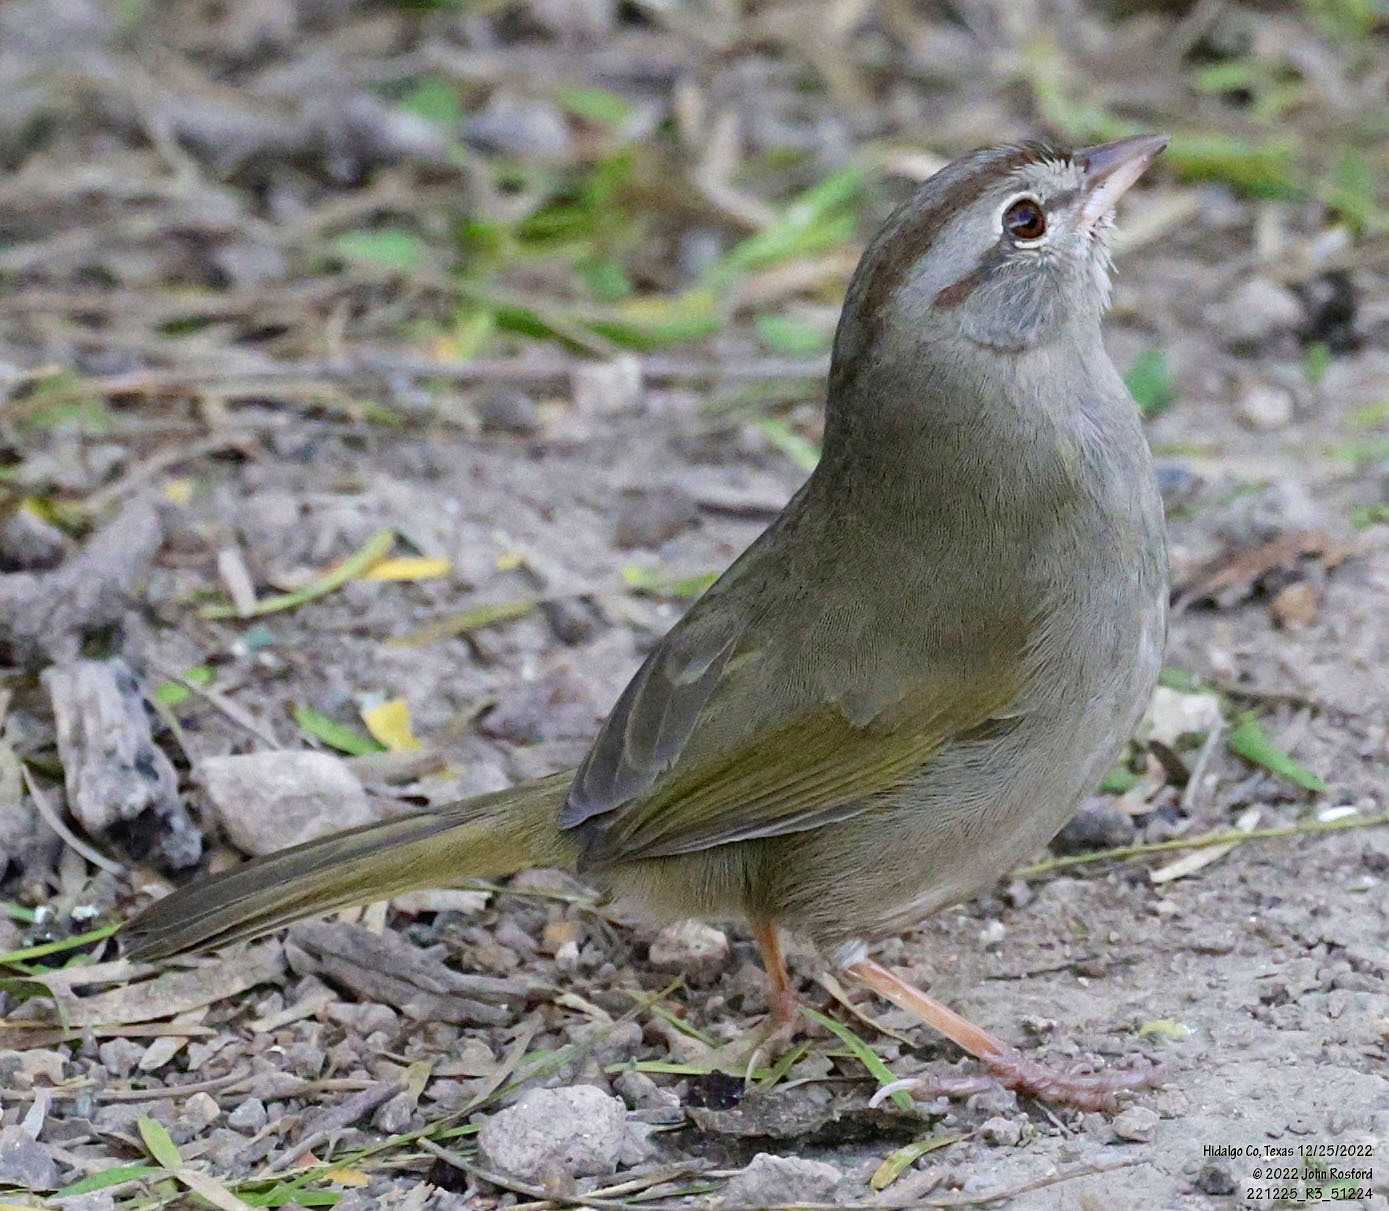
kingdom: Animalia
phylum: Chordata
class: Aves
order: Passeriformes
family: Passerellidae
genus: Arremonops
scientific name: Arremonops rufivirgatus
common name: Olive sparrow
